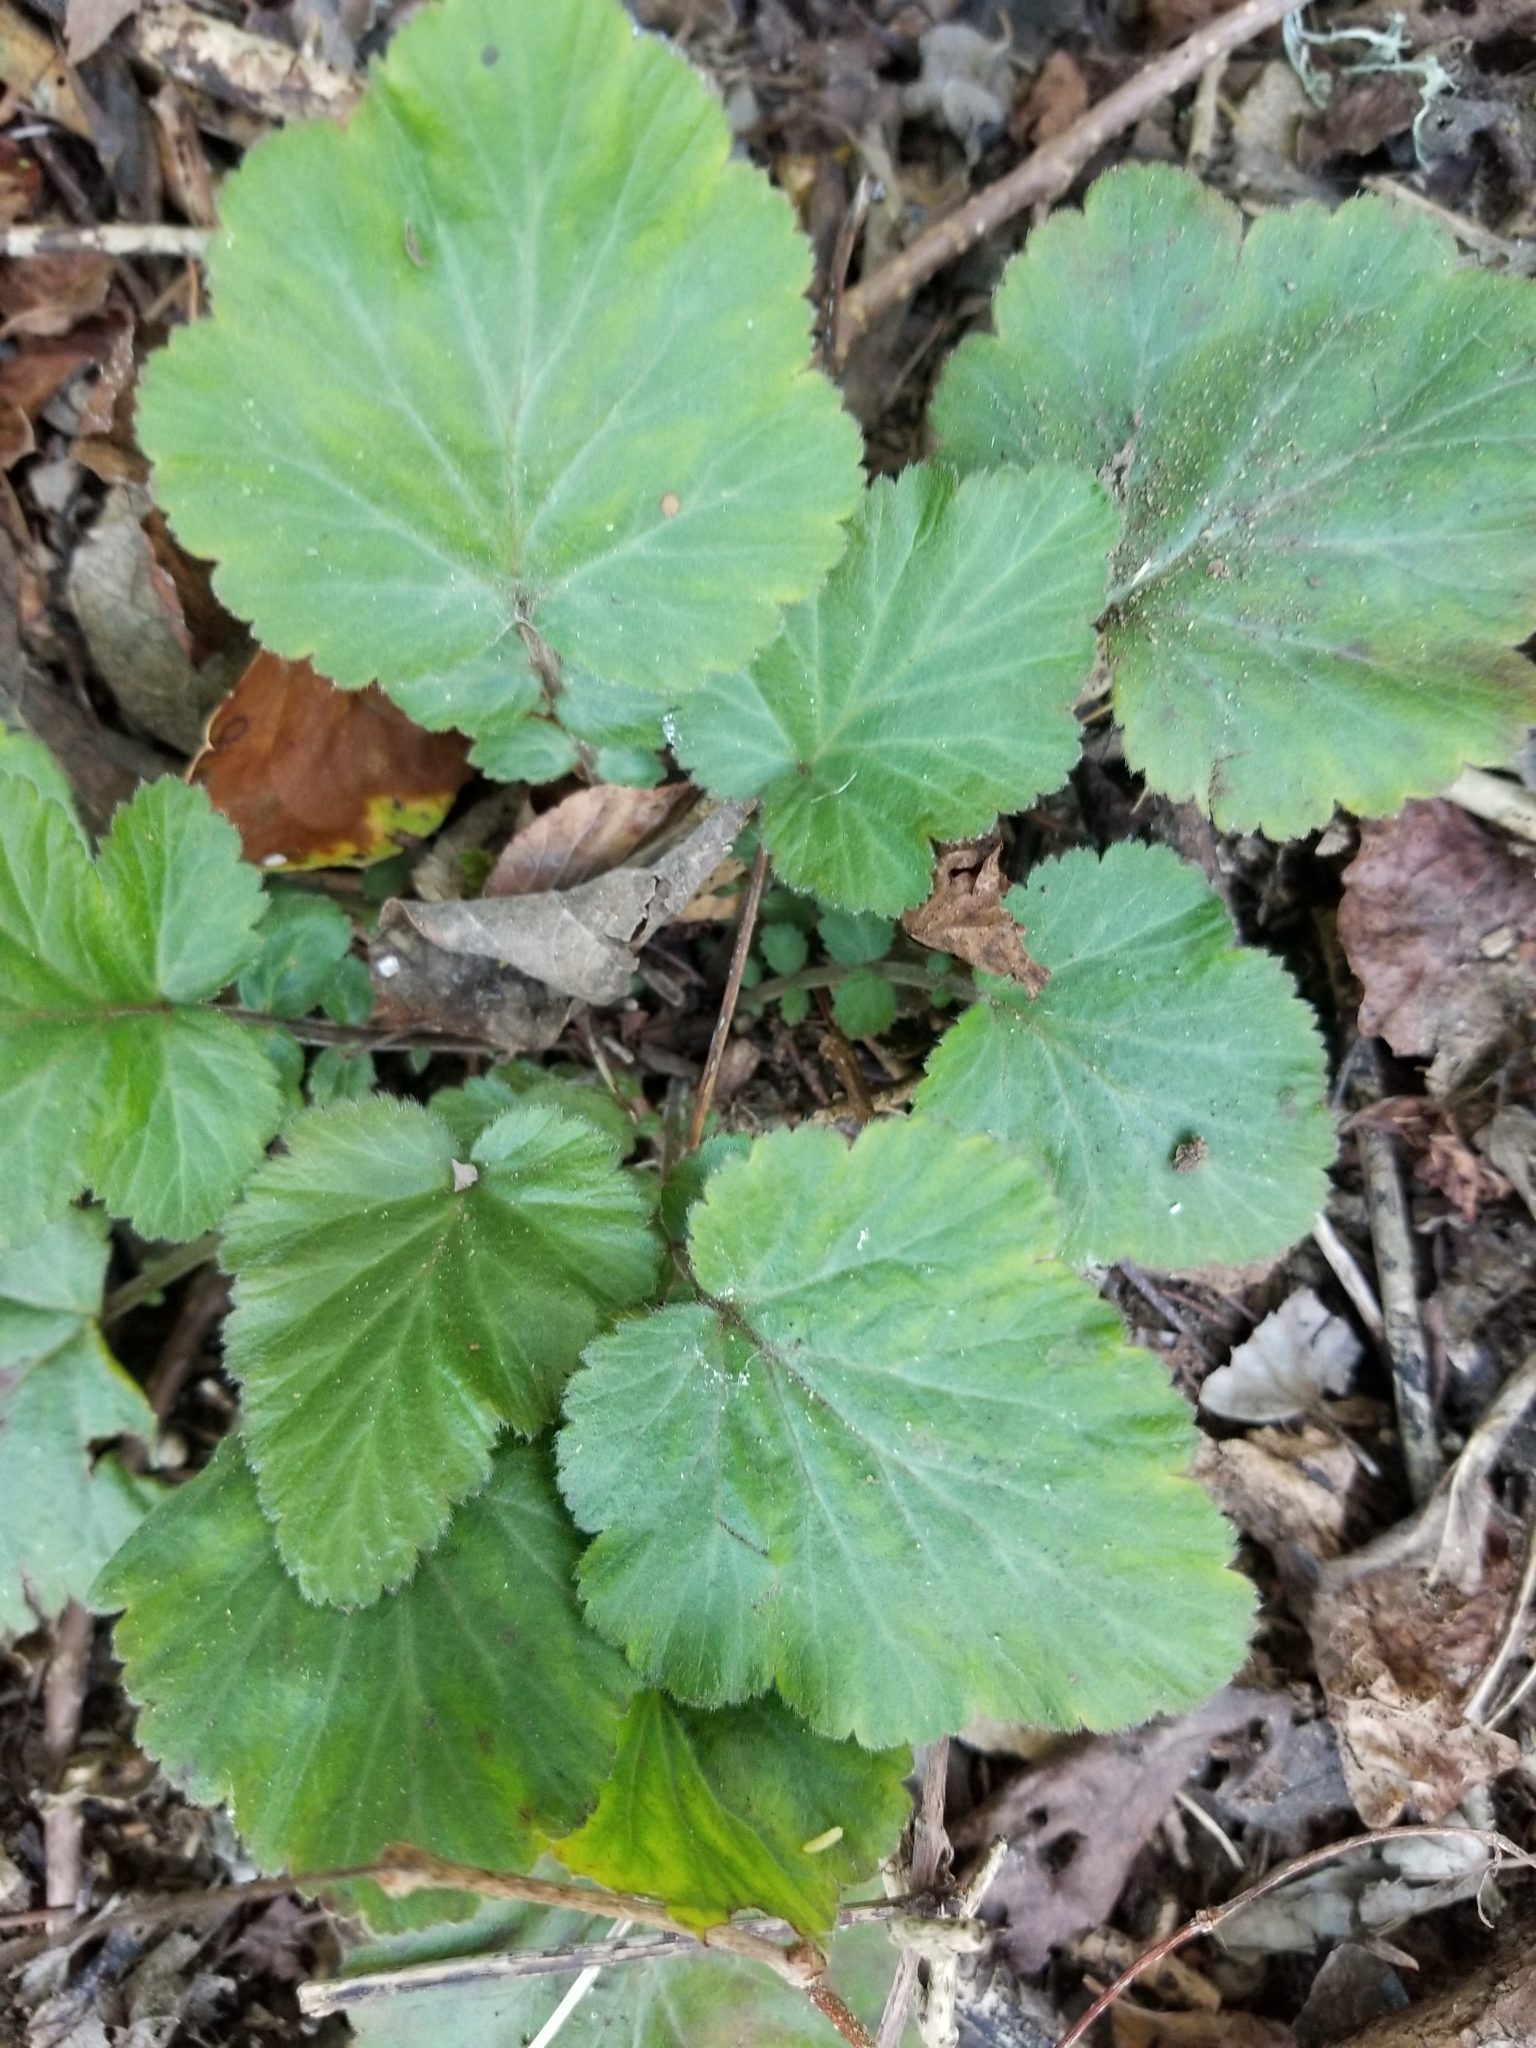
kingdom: Plantae
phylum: Tracheophyta
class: Magnoliopsida
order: Rosales
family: Rosaceae
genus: Geum
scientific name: Geum canadense
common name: White avens
